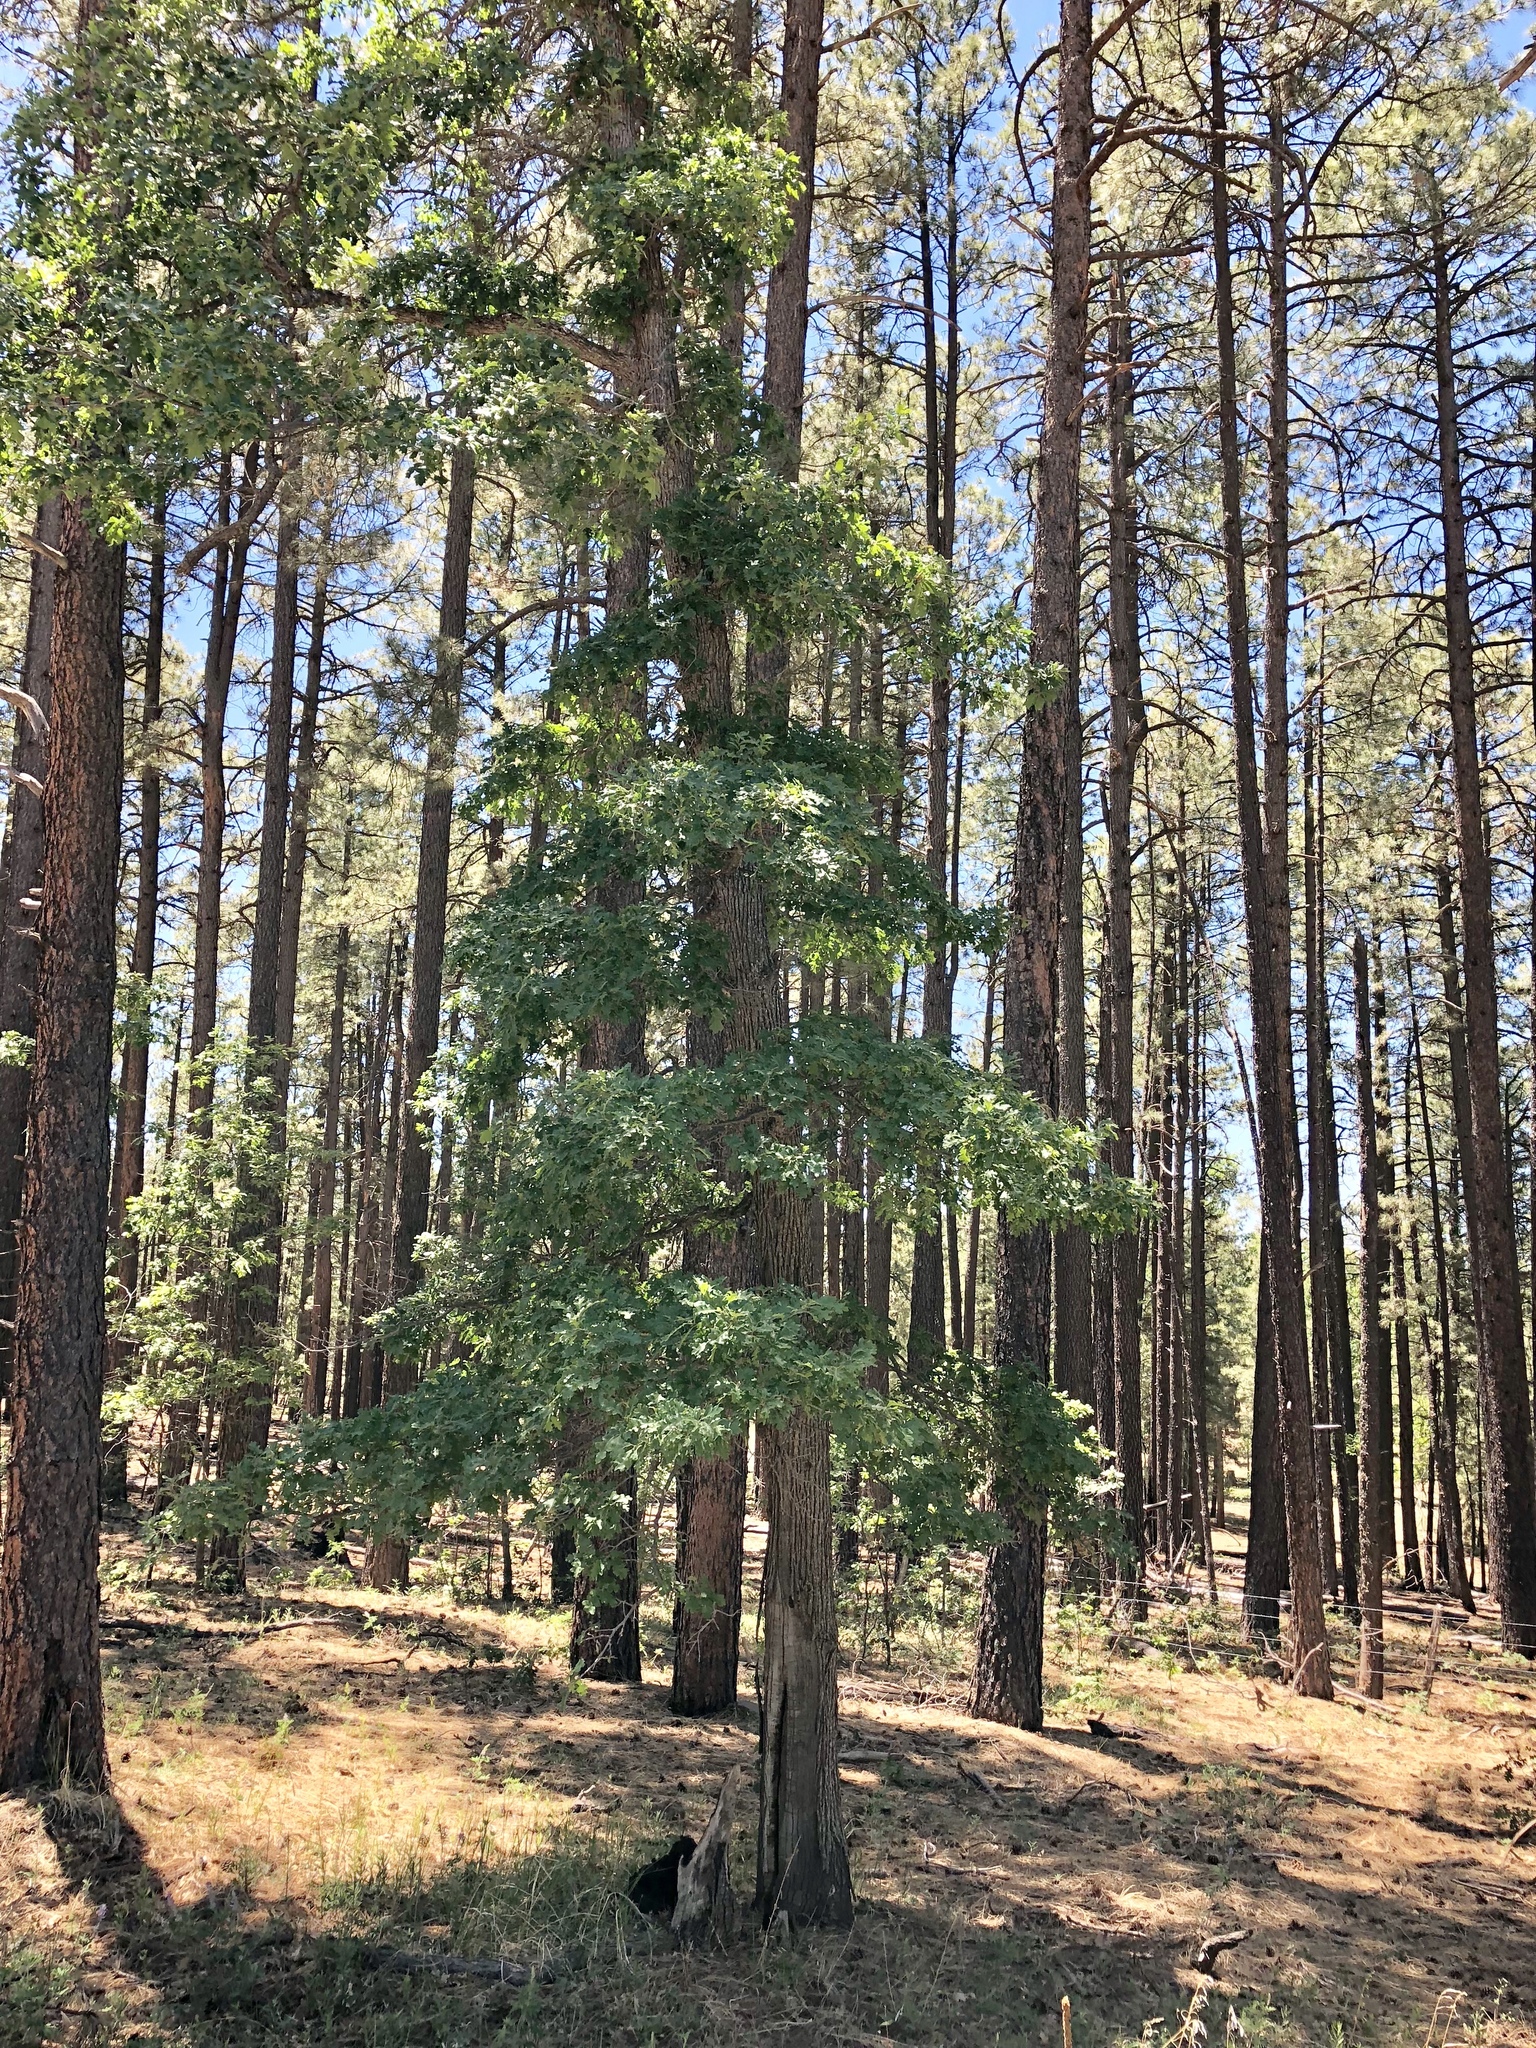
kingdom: Plantae
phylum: Tracheophyta
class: Magnoliopsida
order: Fagales
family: Fagaceae
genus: Quercus
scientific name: Quercus gambelii
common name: Gambel oak
